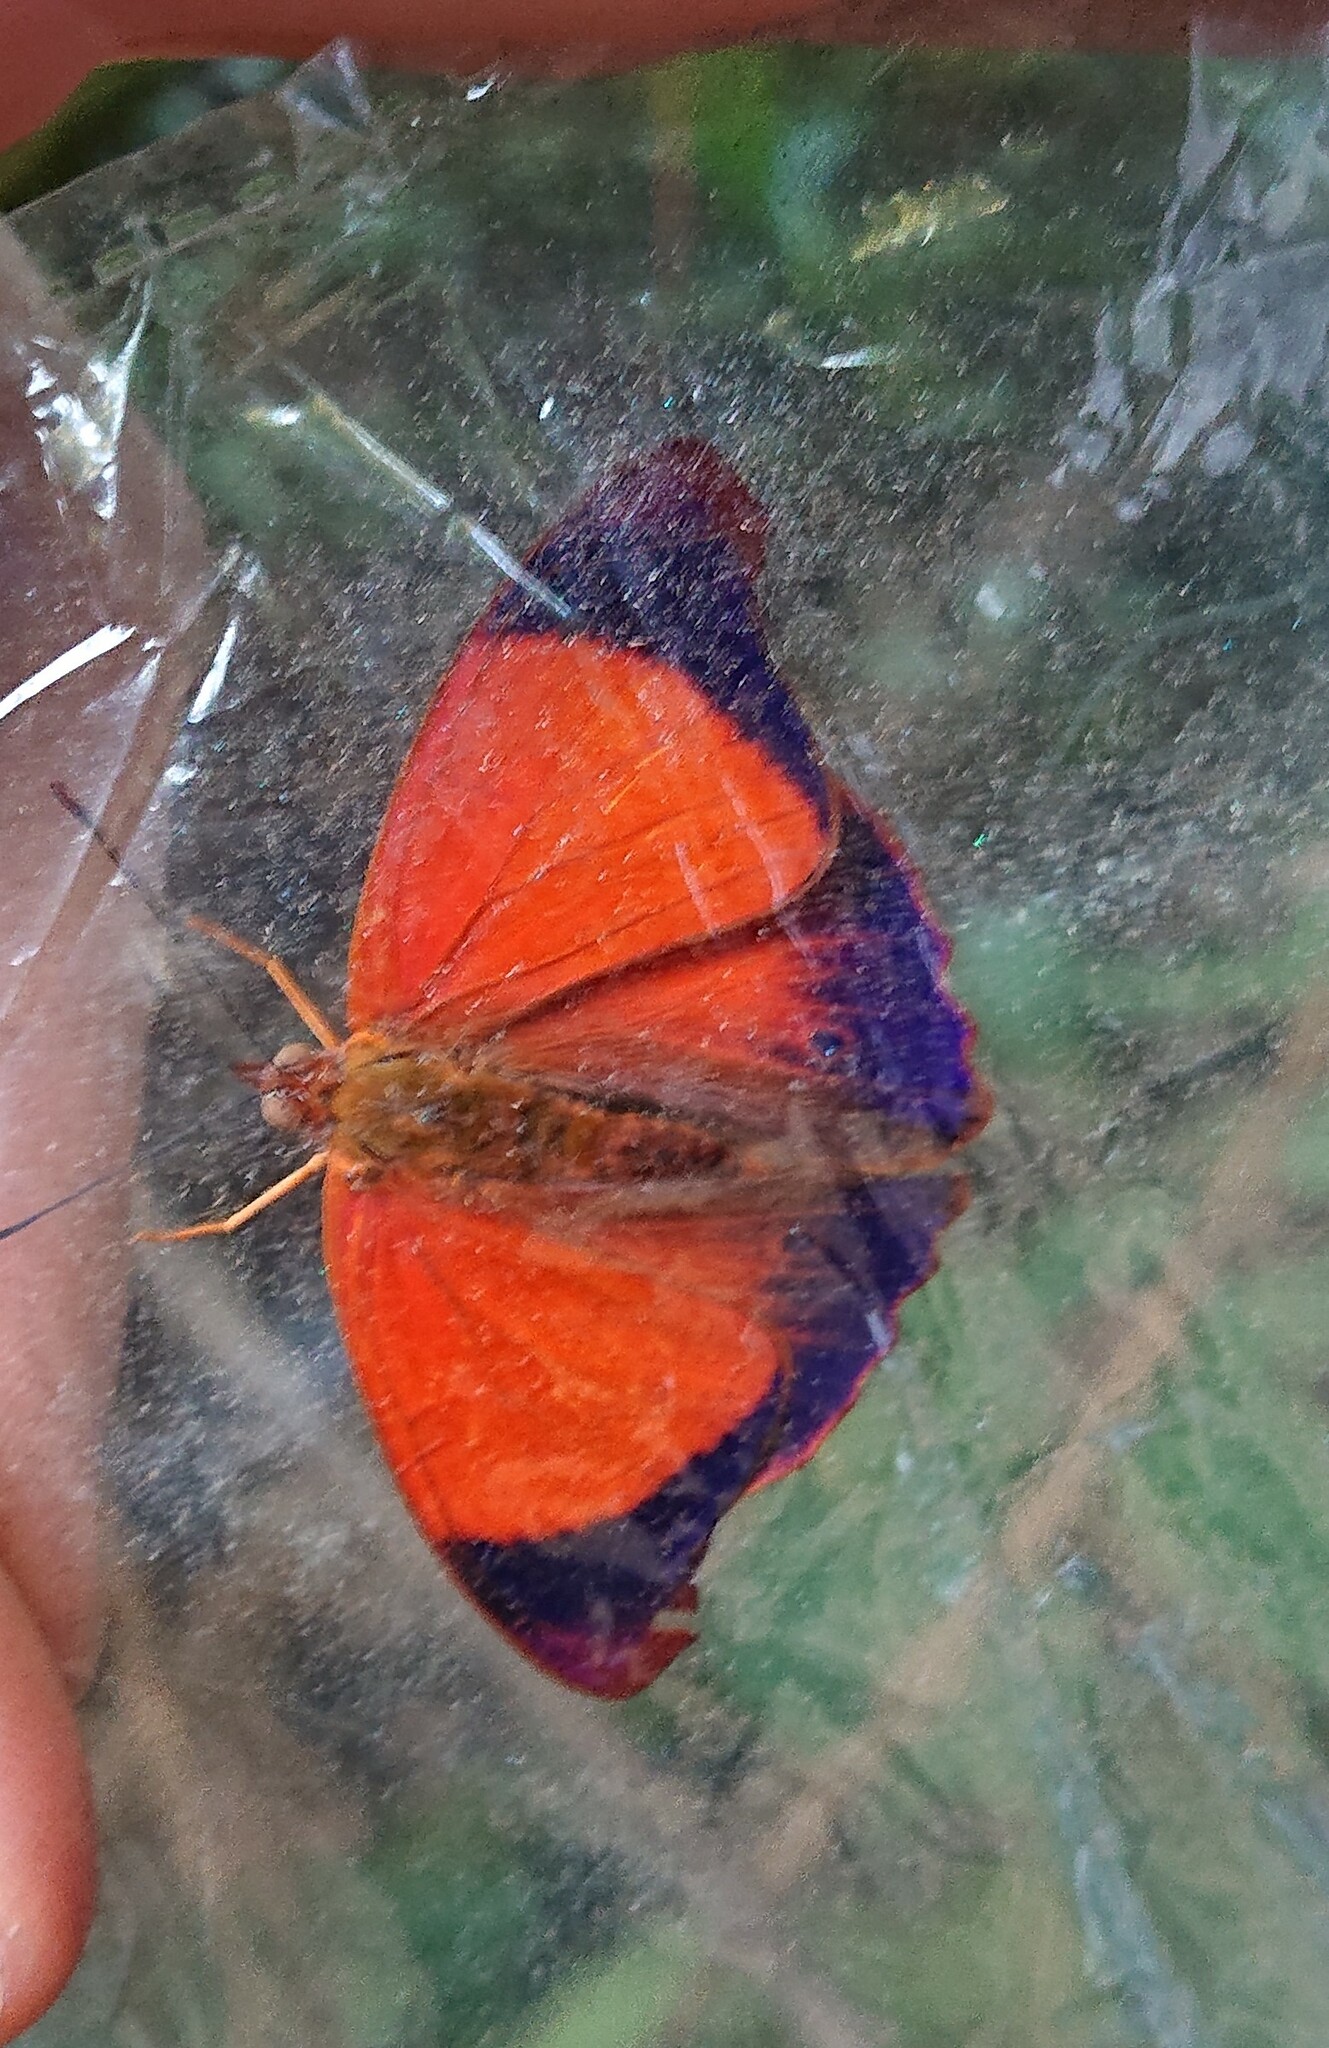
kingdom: Animalia
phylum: Arthropoda
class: Insecta
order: Lepidoptera
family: Nymphalidae
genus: Temenis
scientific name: Temenis laothoe
